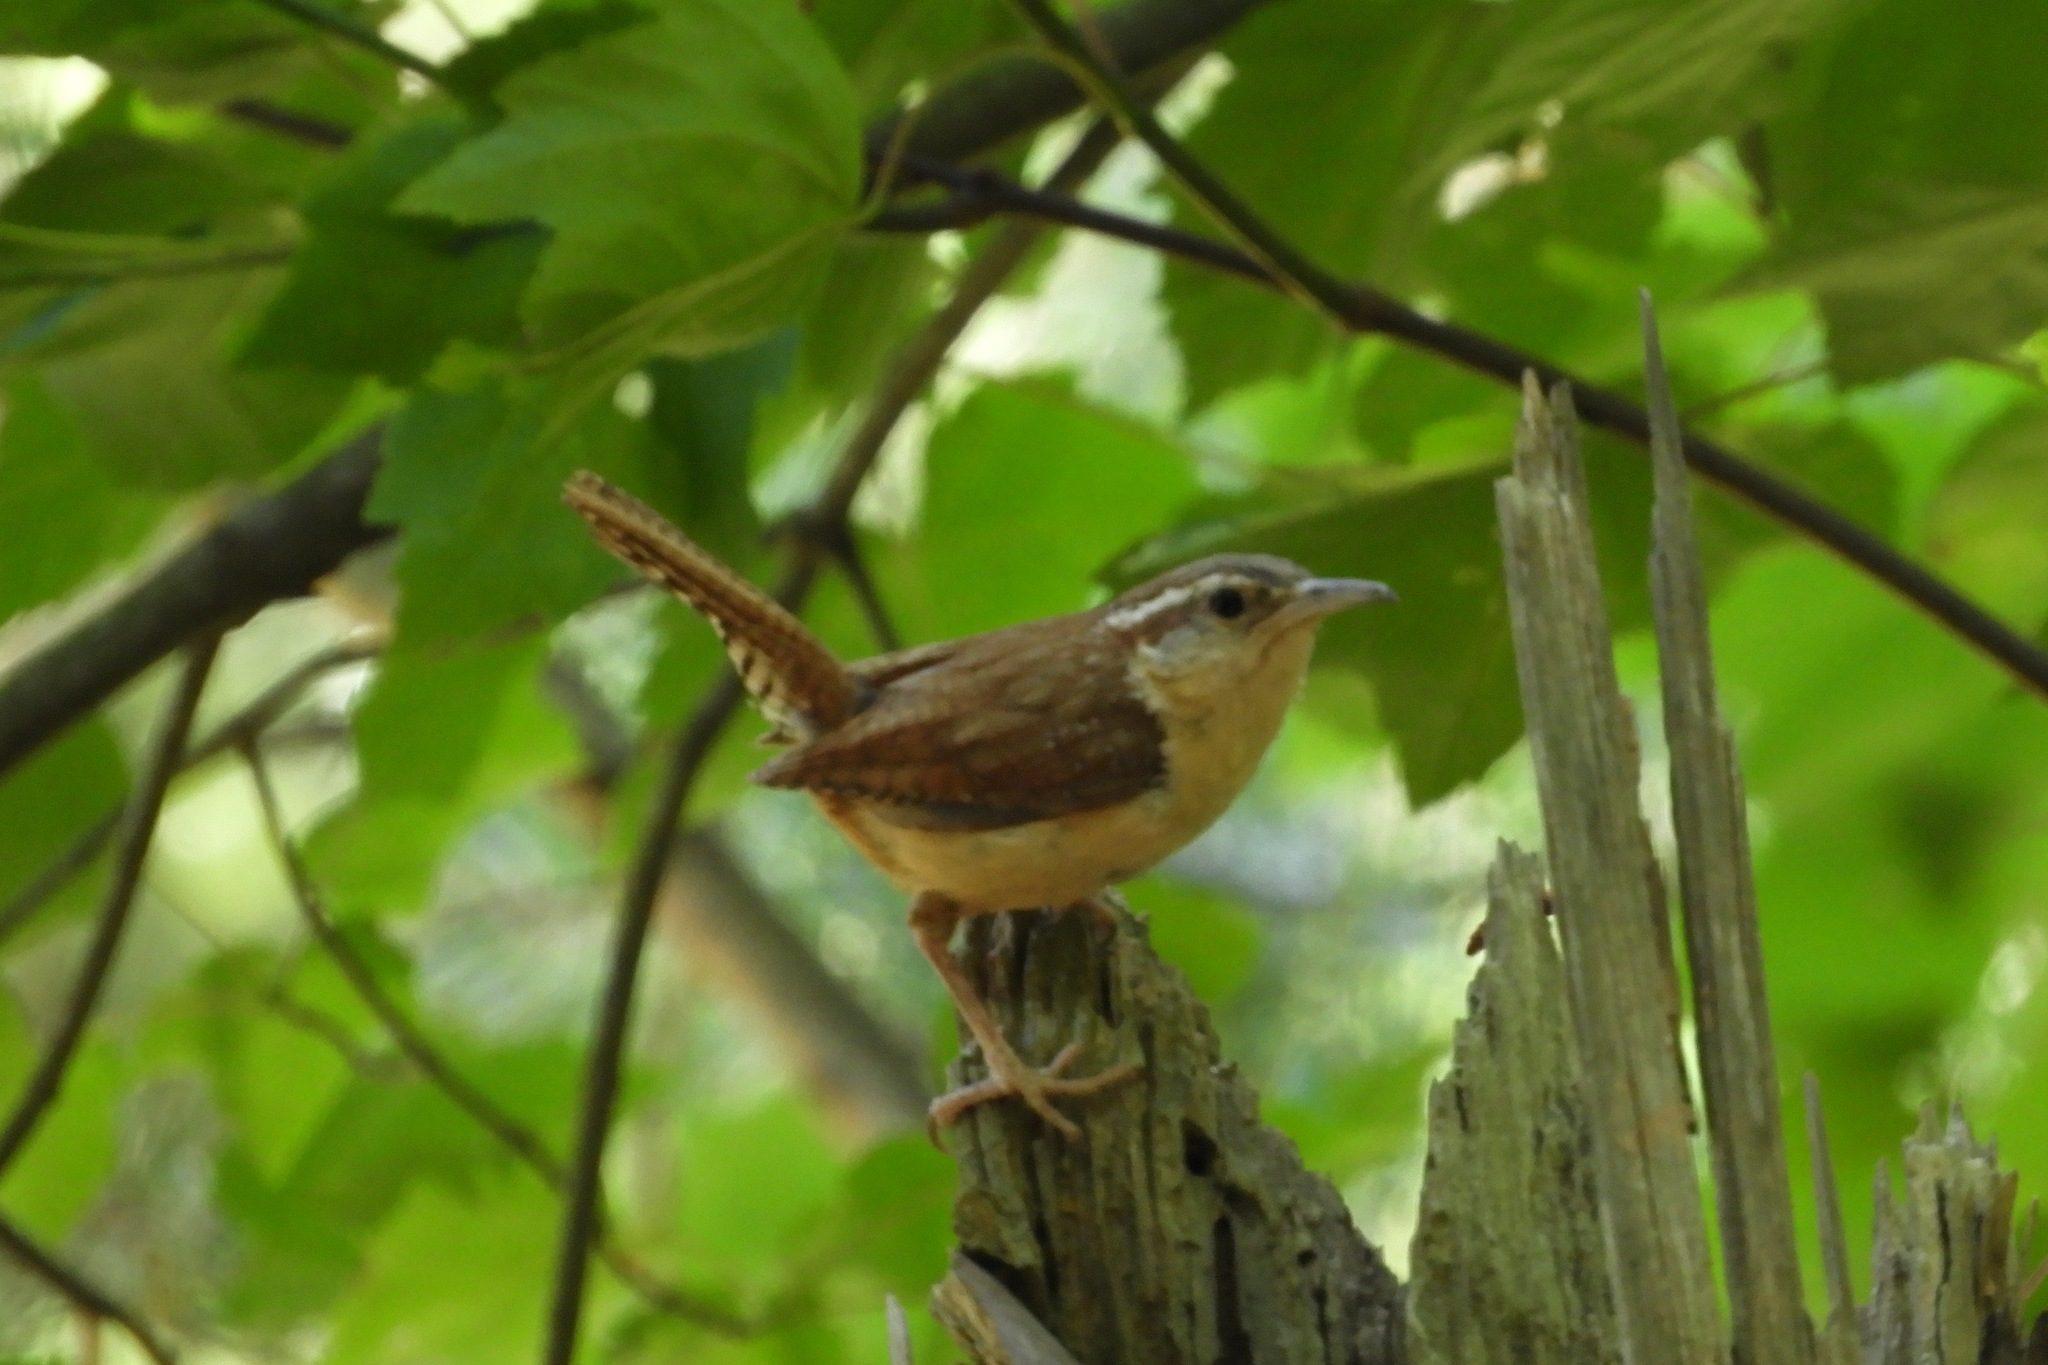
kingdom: Animalia
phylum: Chordata
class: Aves
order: Passeriformes
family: Troglodytidae
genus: Thryothorus
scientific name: Thryothorus ludovicianus
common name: Carolina wren
